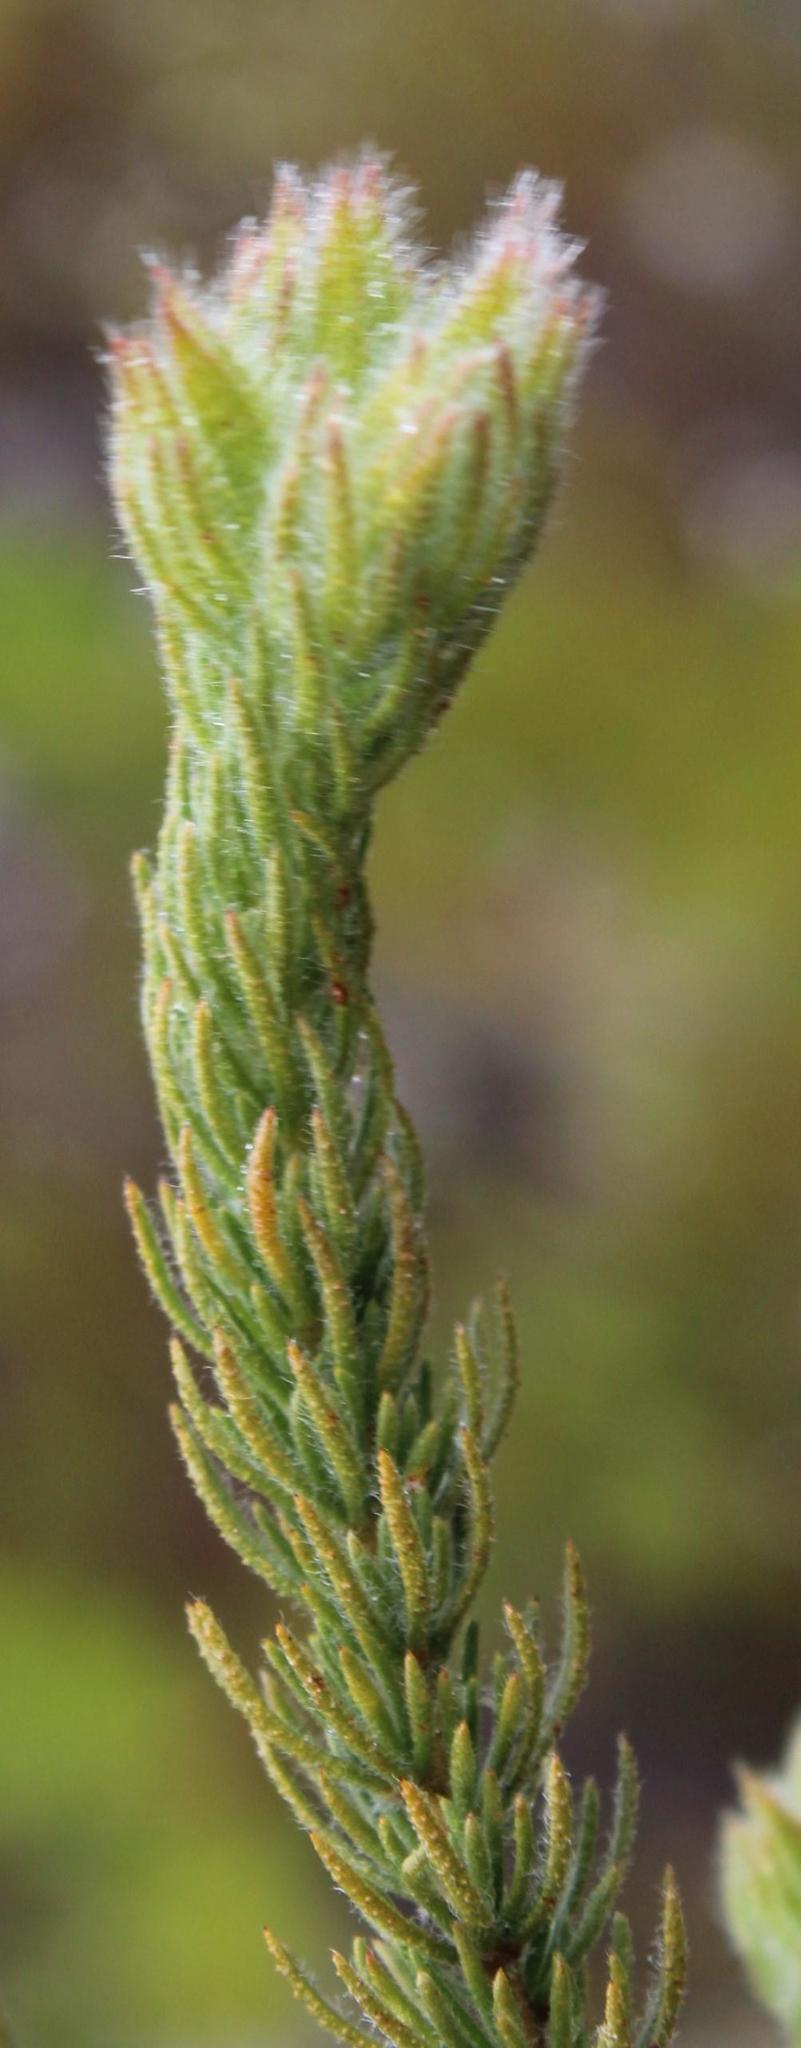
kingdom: Plantae
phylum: Tracheophyta
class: Magnoliopsida
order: Fabales
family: Fabaceae
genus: Aspalathus
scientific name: Aspalathus ciliaris
